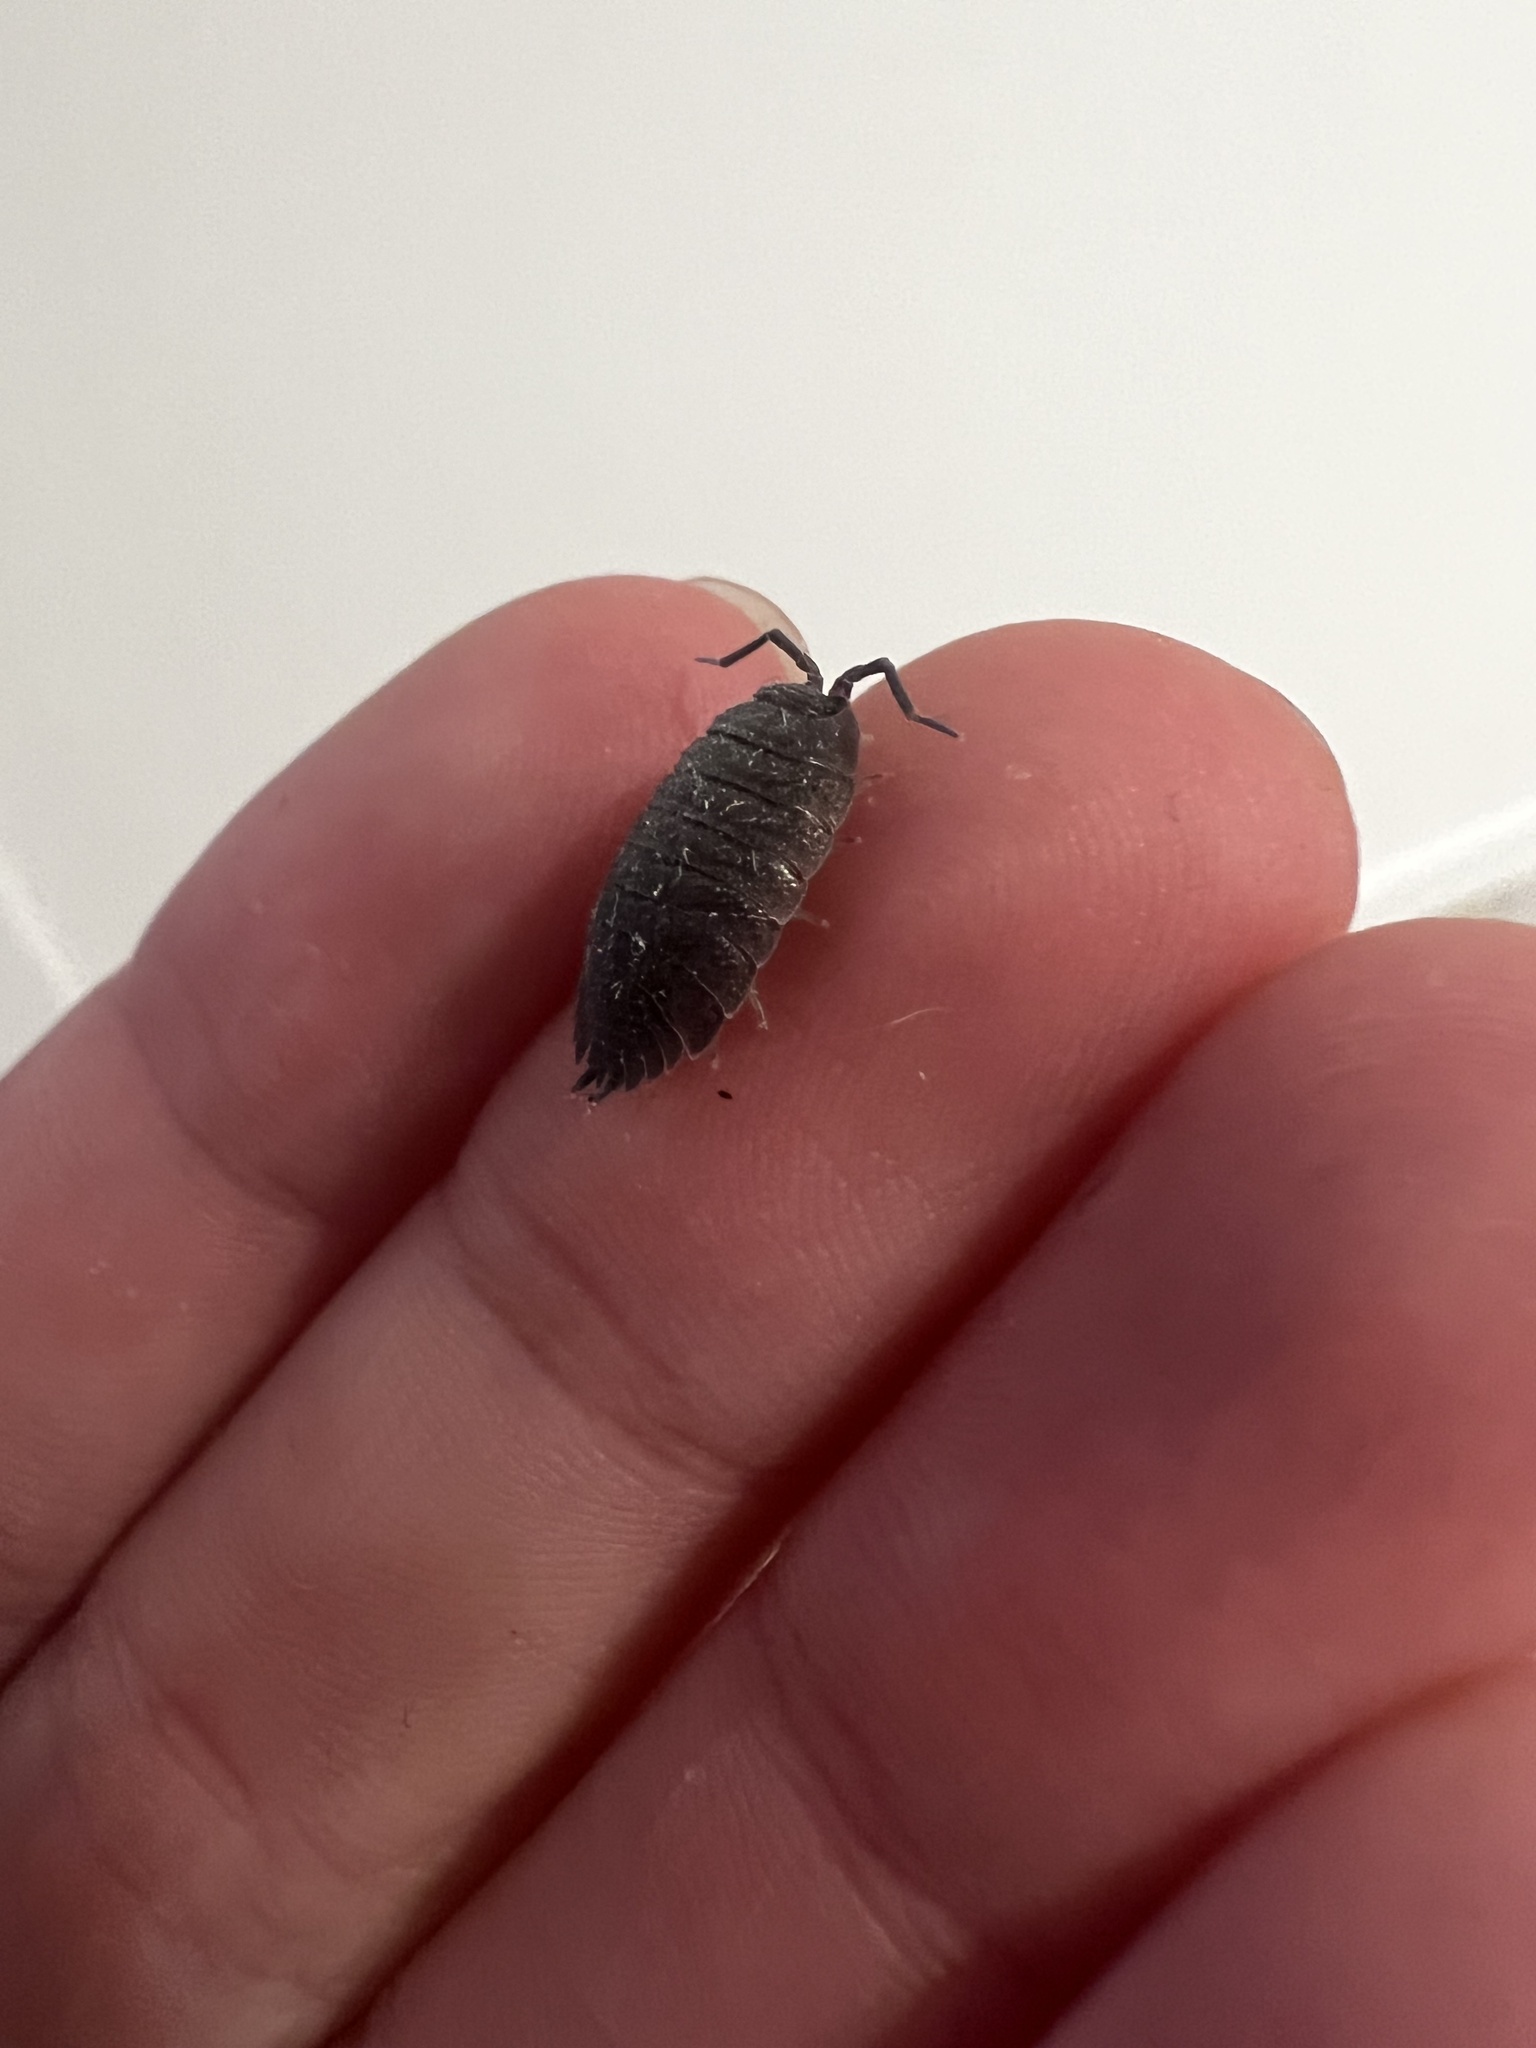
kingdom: Animalia
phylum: Arthropoda
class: Malacostraca
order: Isopoda
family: Porcellionidae
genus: Porcellio
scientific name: Porcellio scaber
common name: Common rough woodlouse
